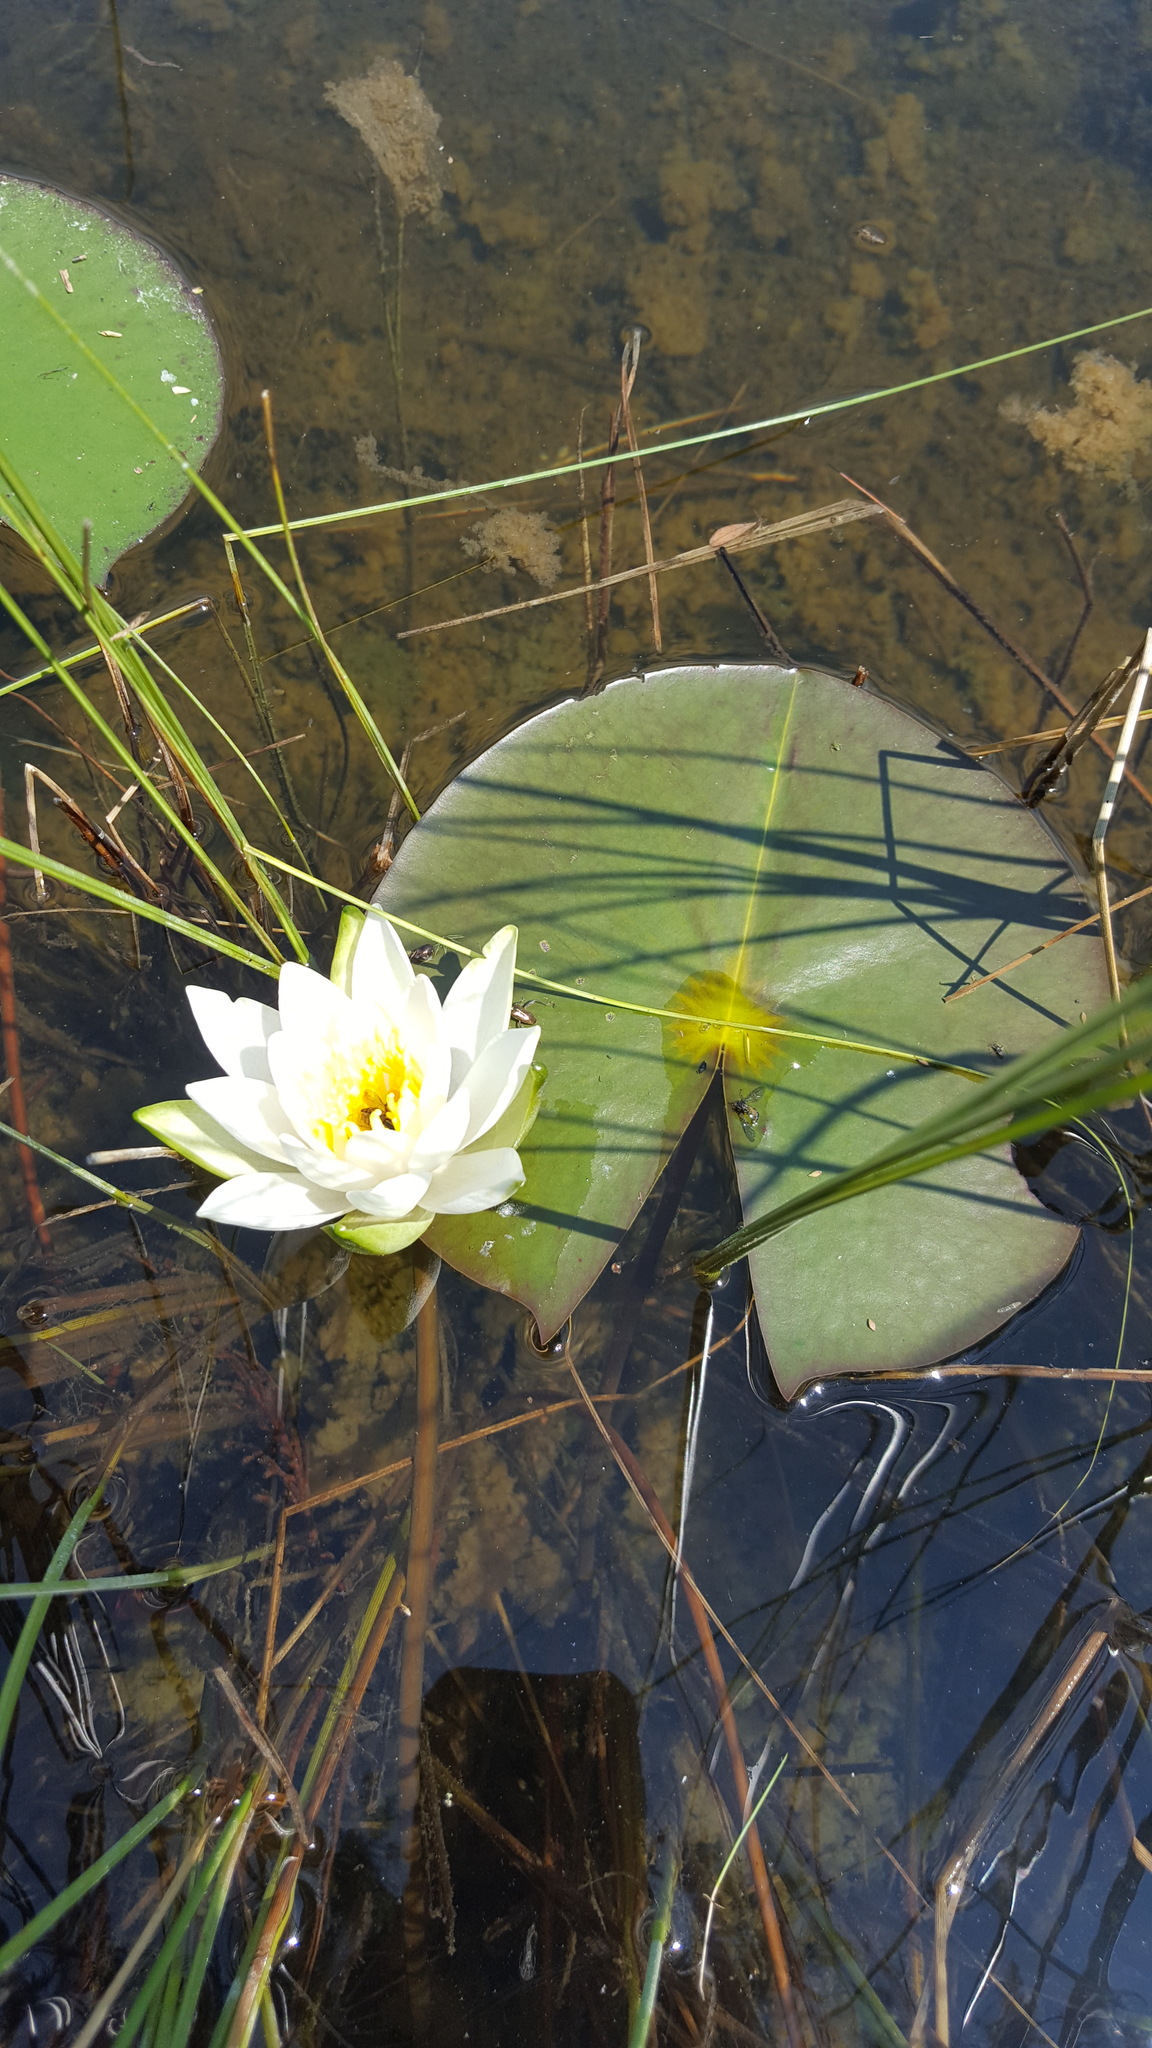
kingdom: Plantae
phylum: Tracheophyta
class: Magnoliopsida
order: Nymphaeales
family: Nymphaeaceae
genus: Nymphaea
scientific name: Nymphaea odorata
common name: Fragrant water-lily
